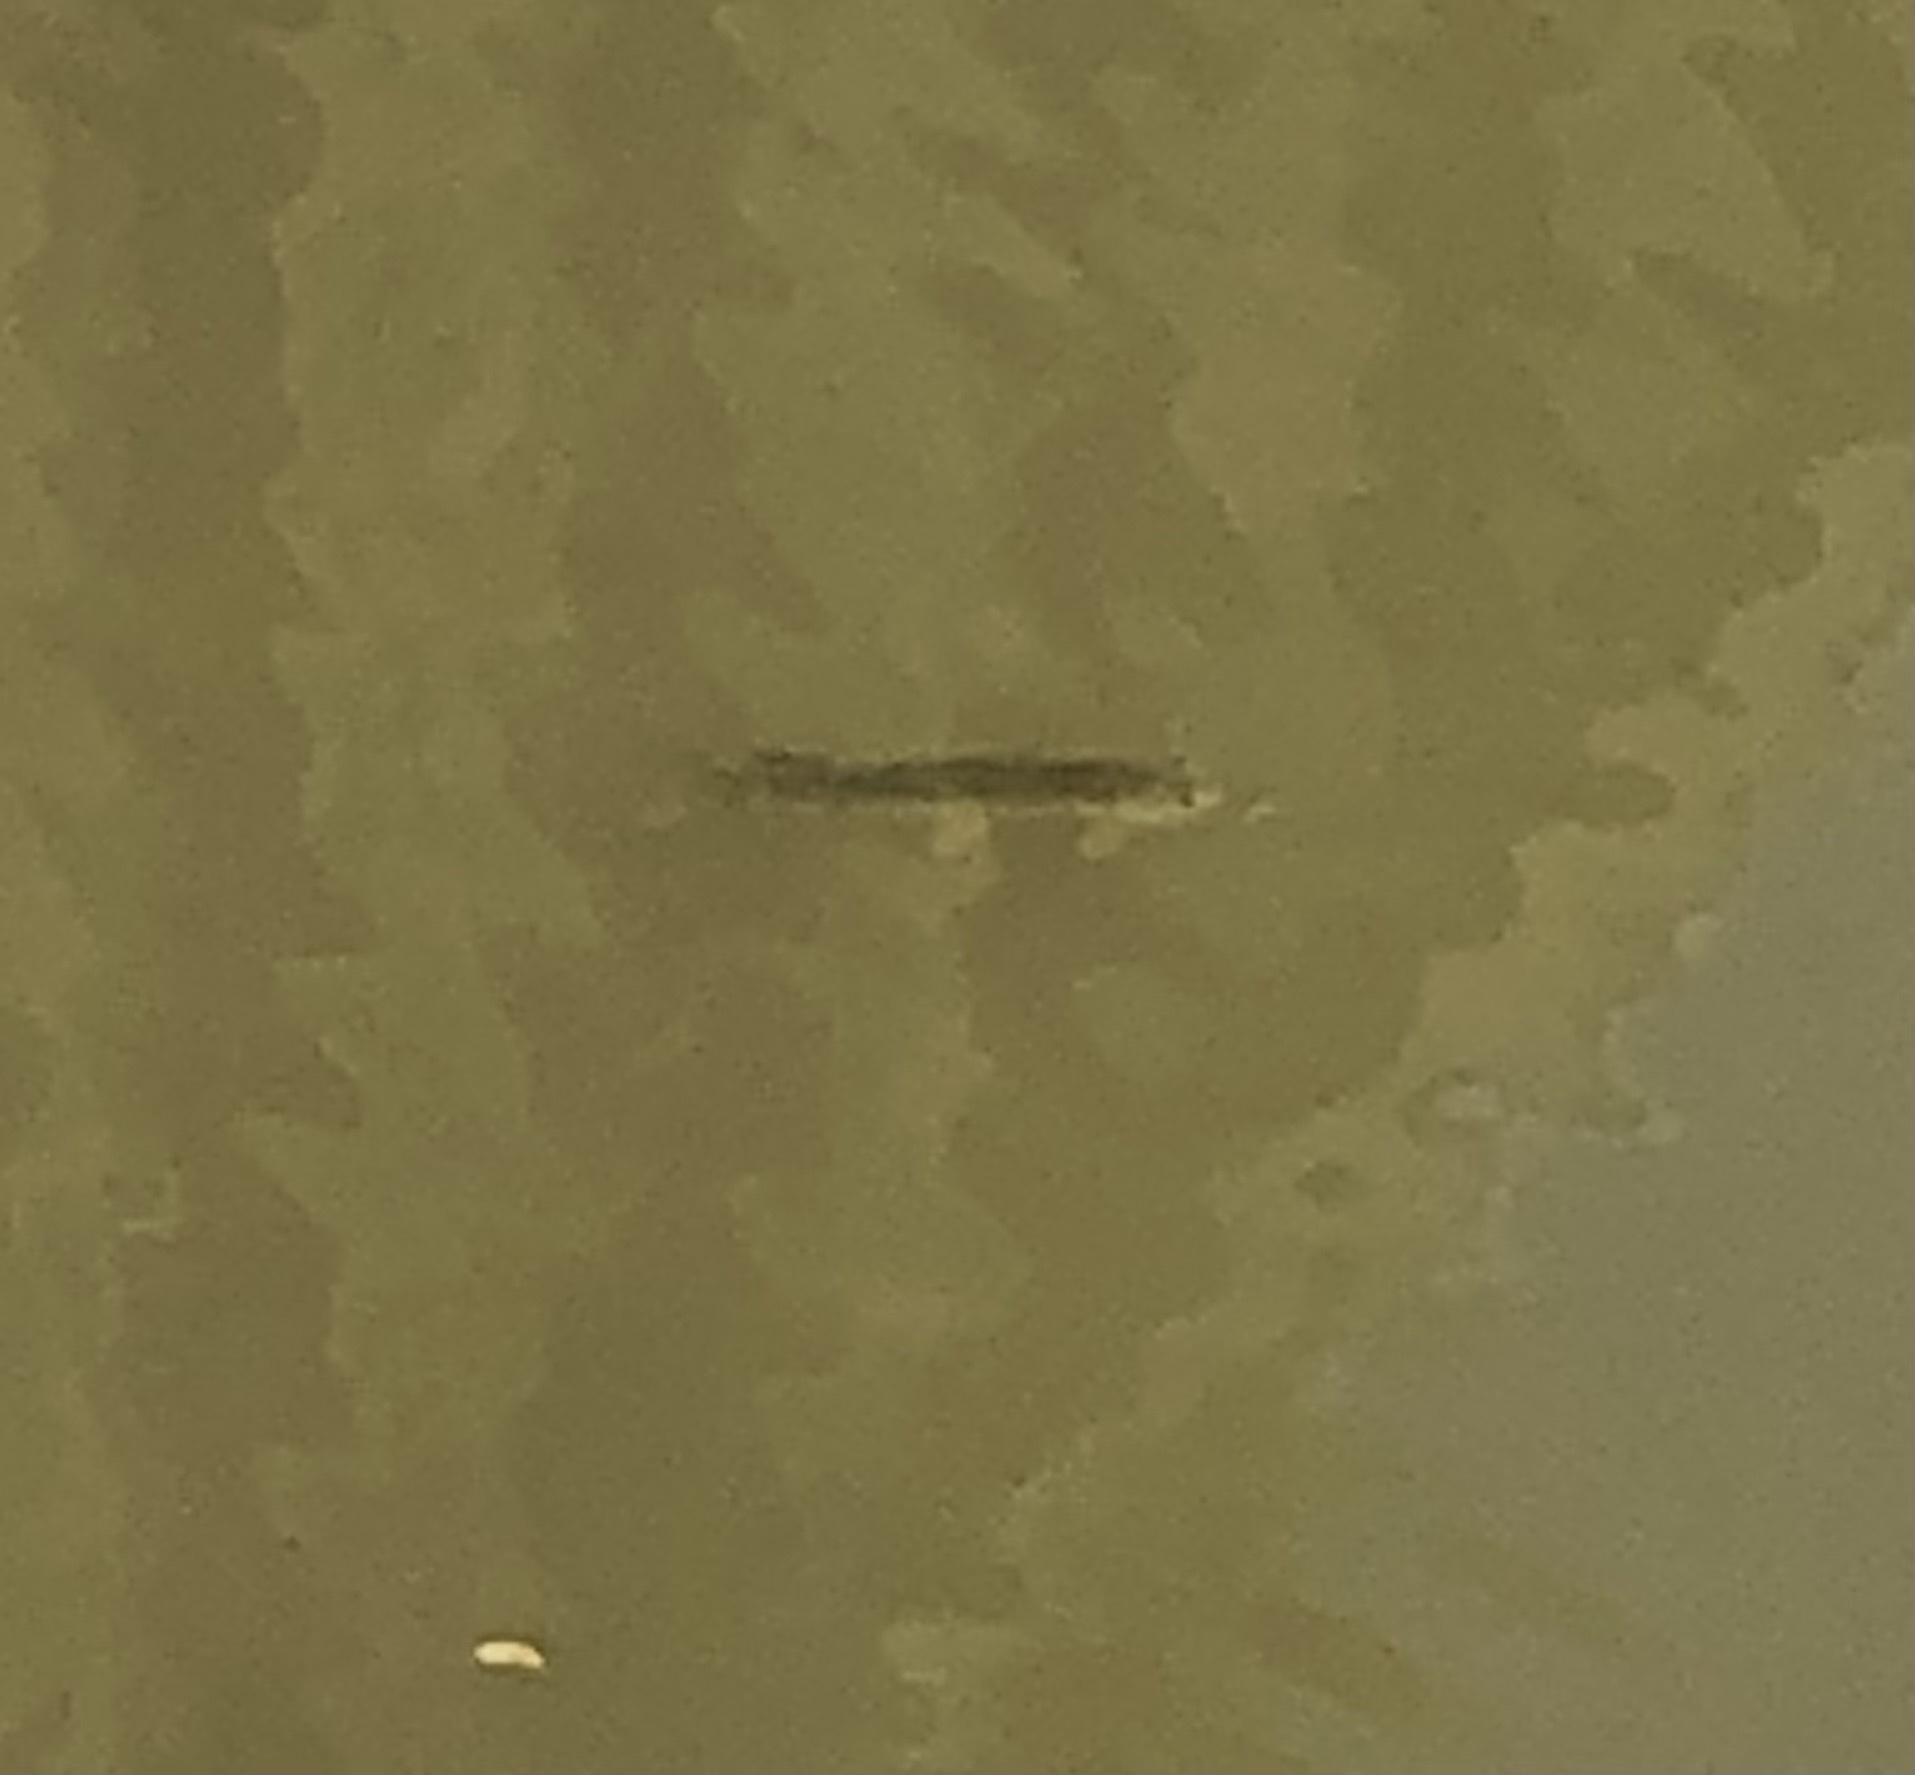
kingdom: Animalia
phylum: Chordata
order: Esociformes
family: Esocidae
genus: Esox
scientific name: Esox lucius
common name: Northern pike
